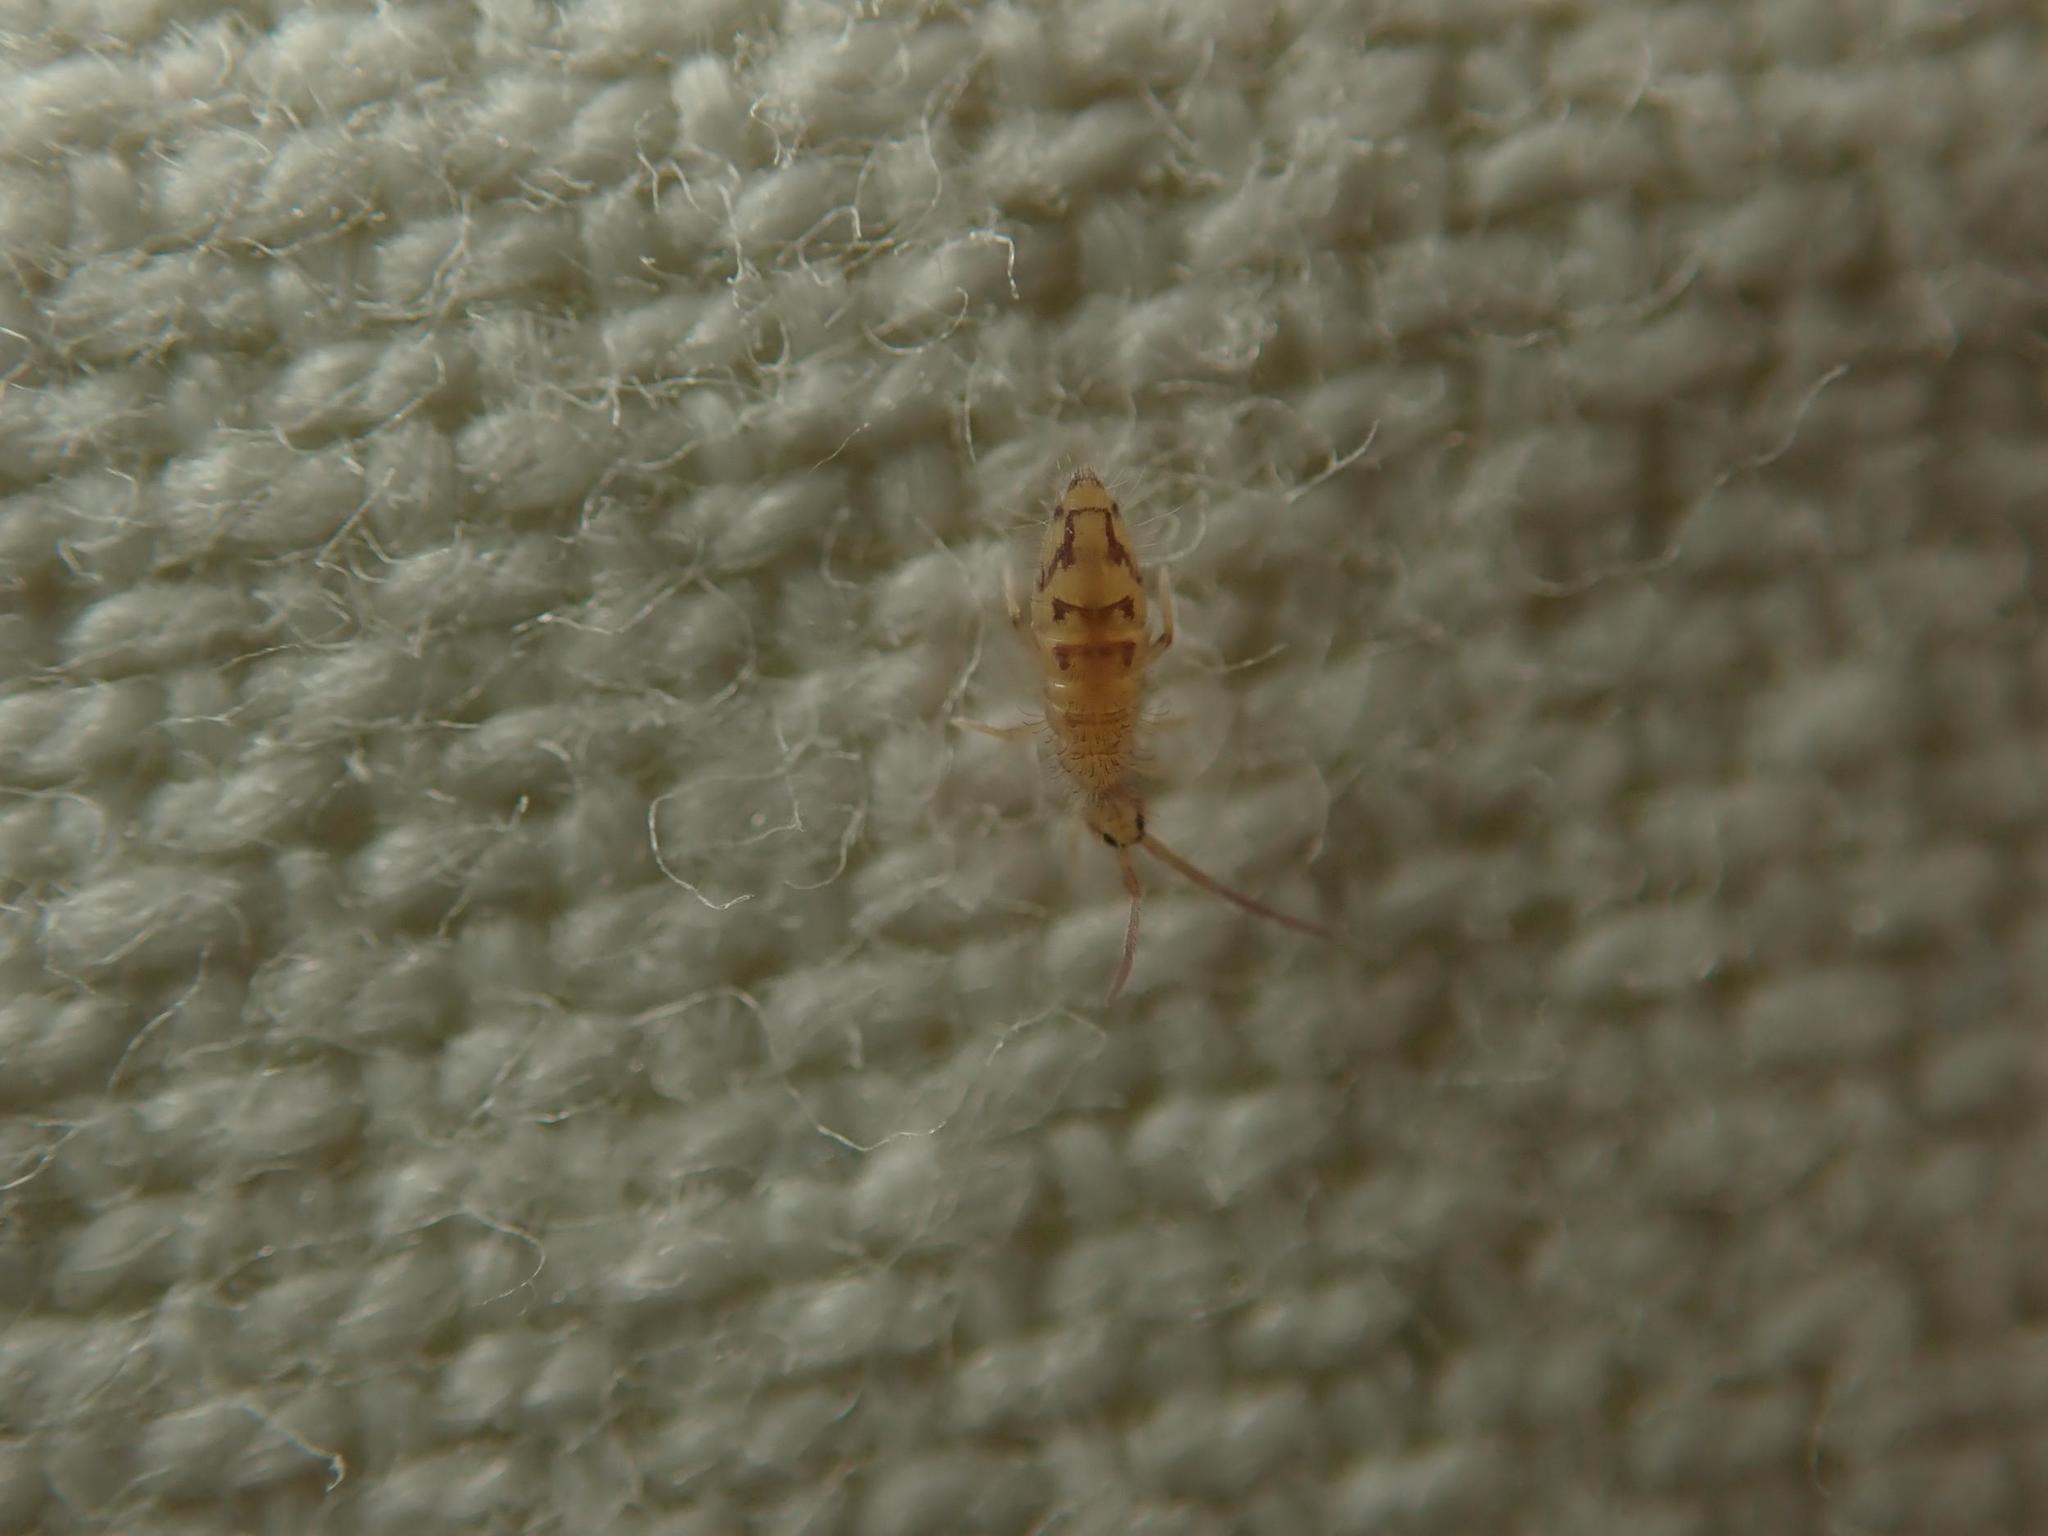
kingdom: Animalia
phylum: Arthropoda
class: Collembola
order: Entomobryomorpha
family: Entomobryidae
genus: Entomobrya
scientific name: Entomobrya nivalis
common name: Cosmopolitan springtail
